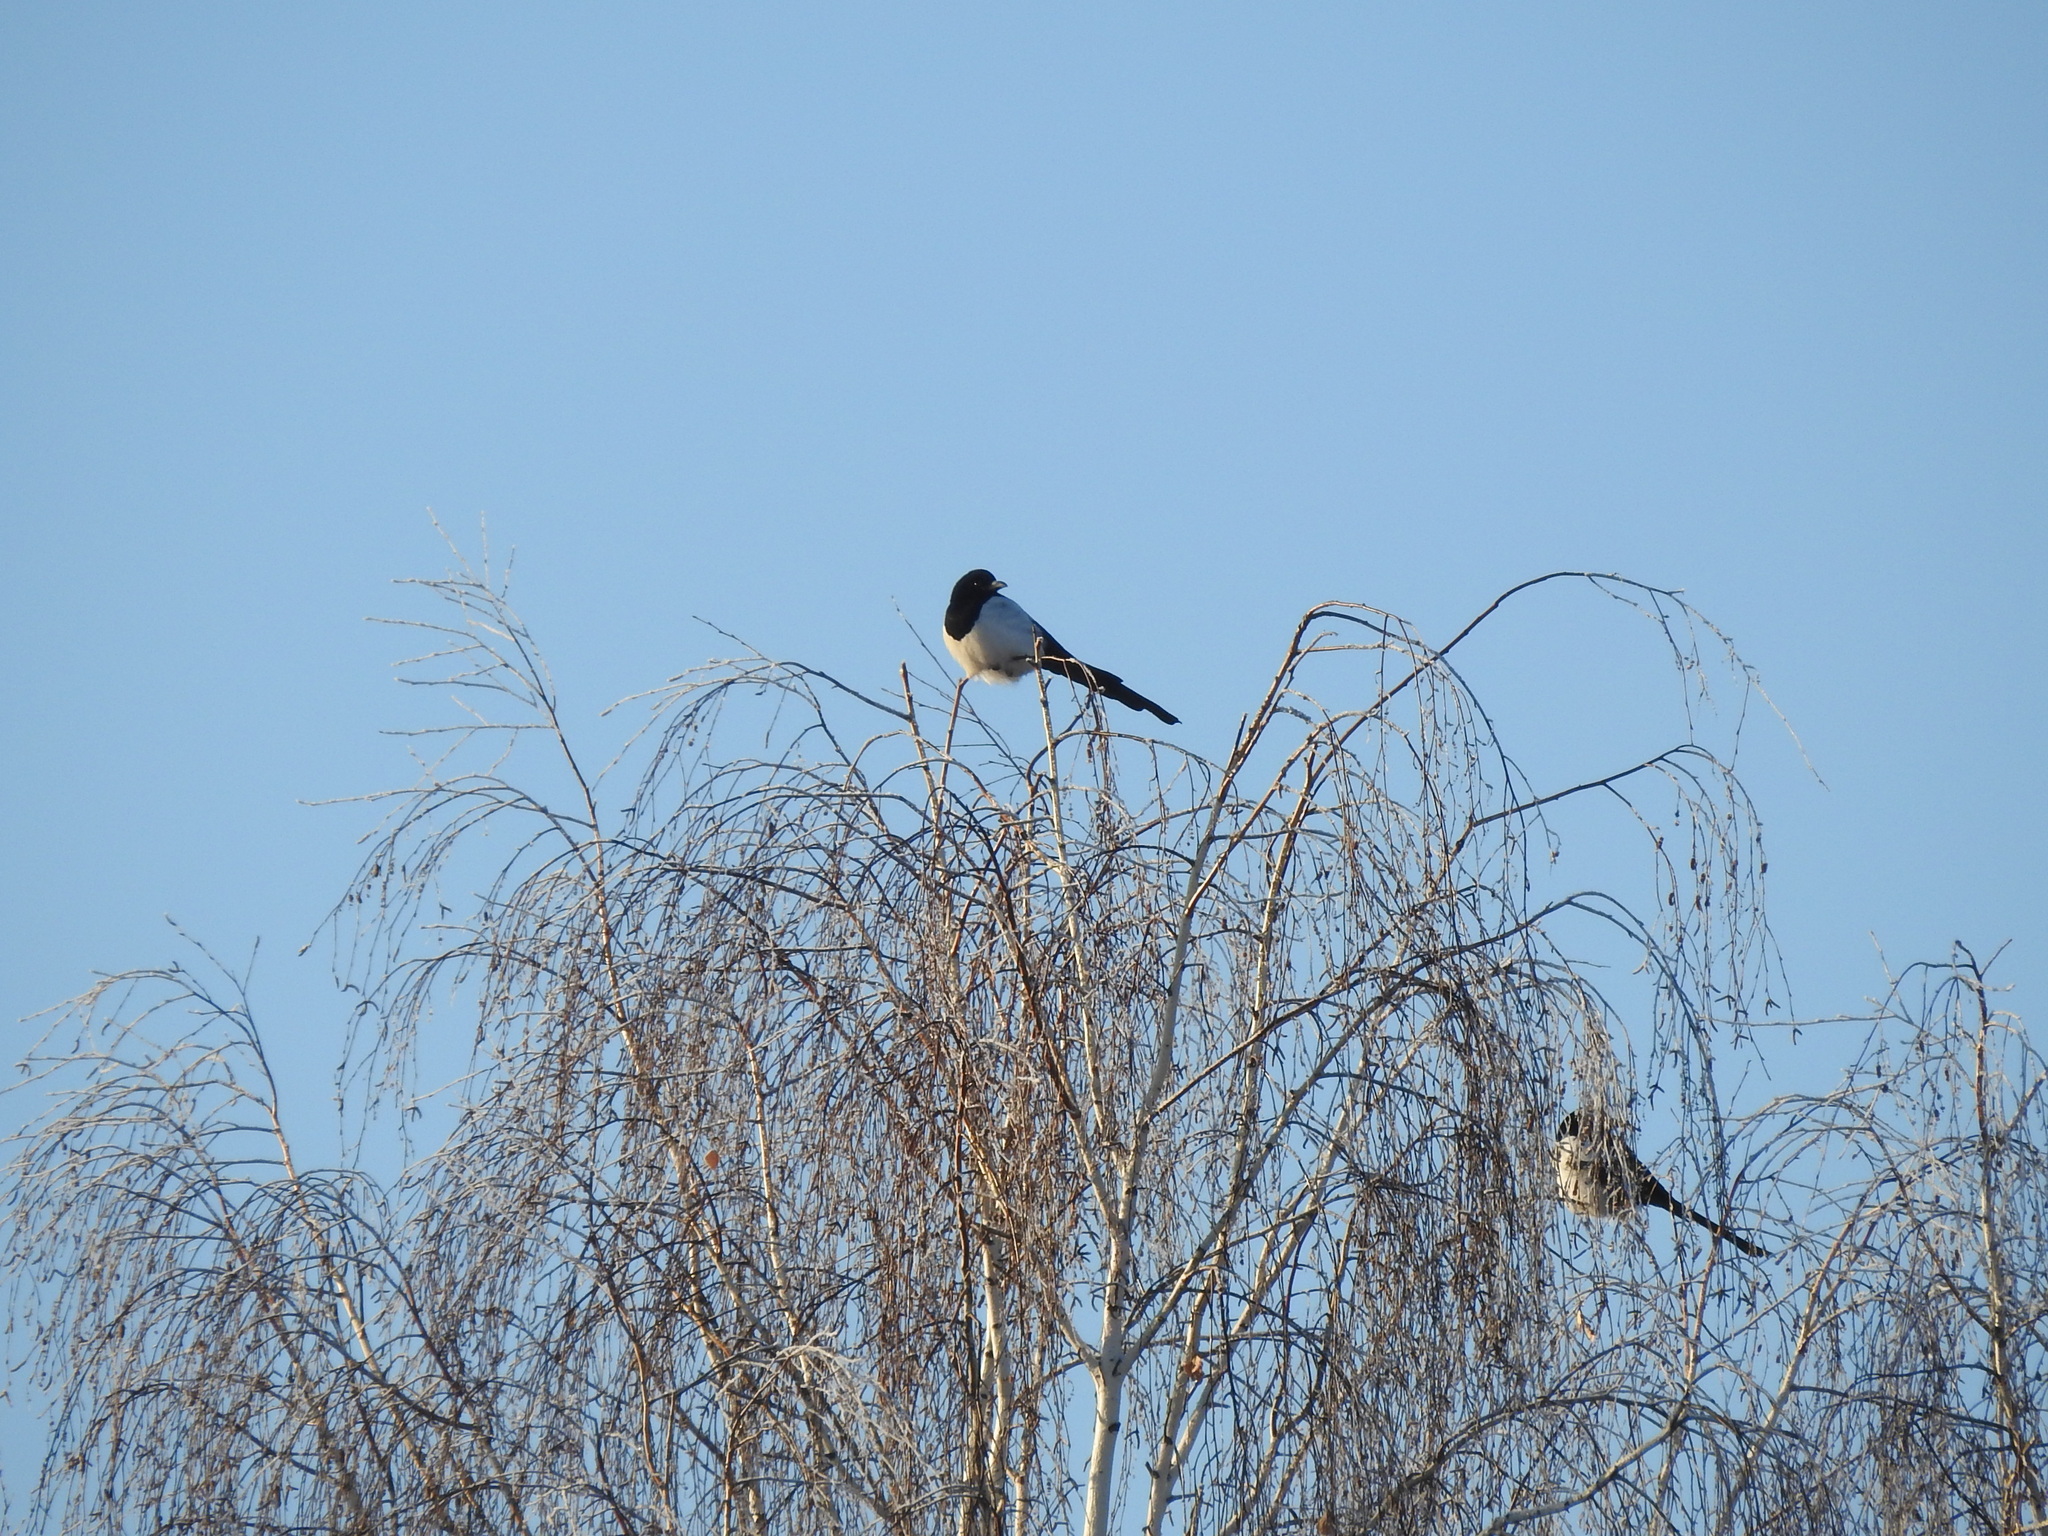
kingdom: Animalia
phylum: Chordata
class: Aves
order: Passeriformes
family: Corvidae
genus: Pica
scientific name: Pica pica
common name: Eurasian magpie
